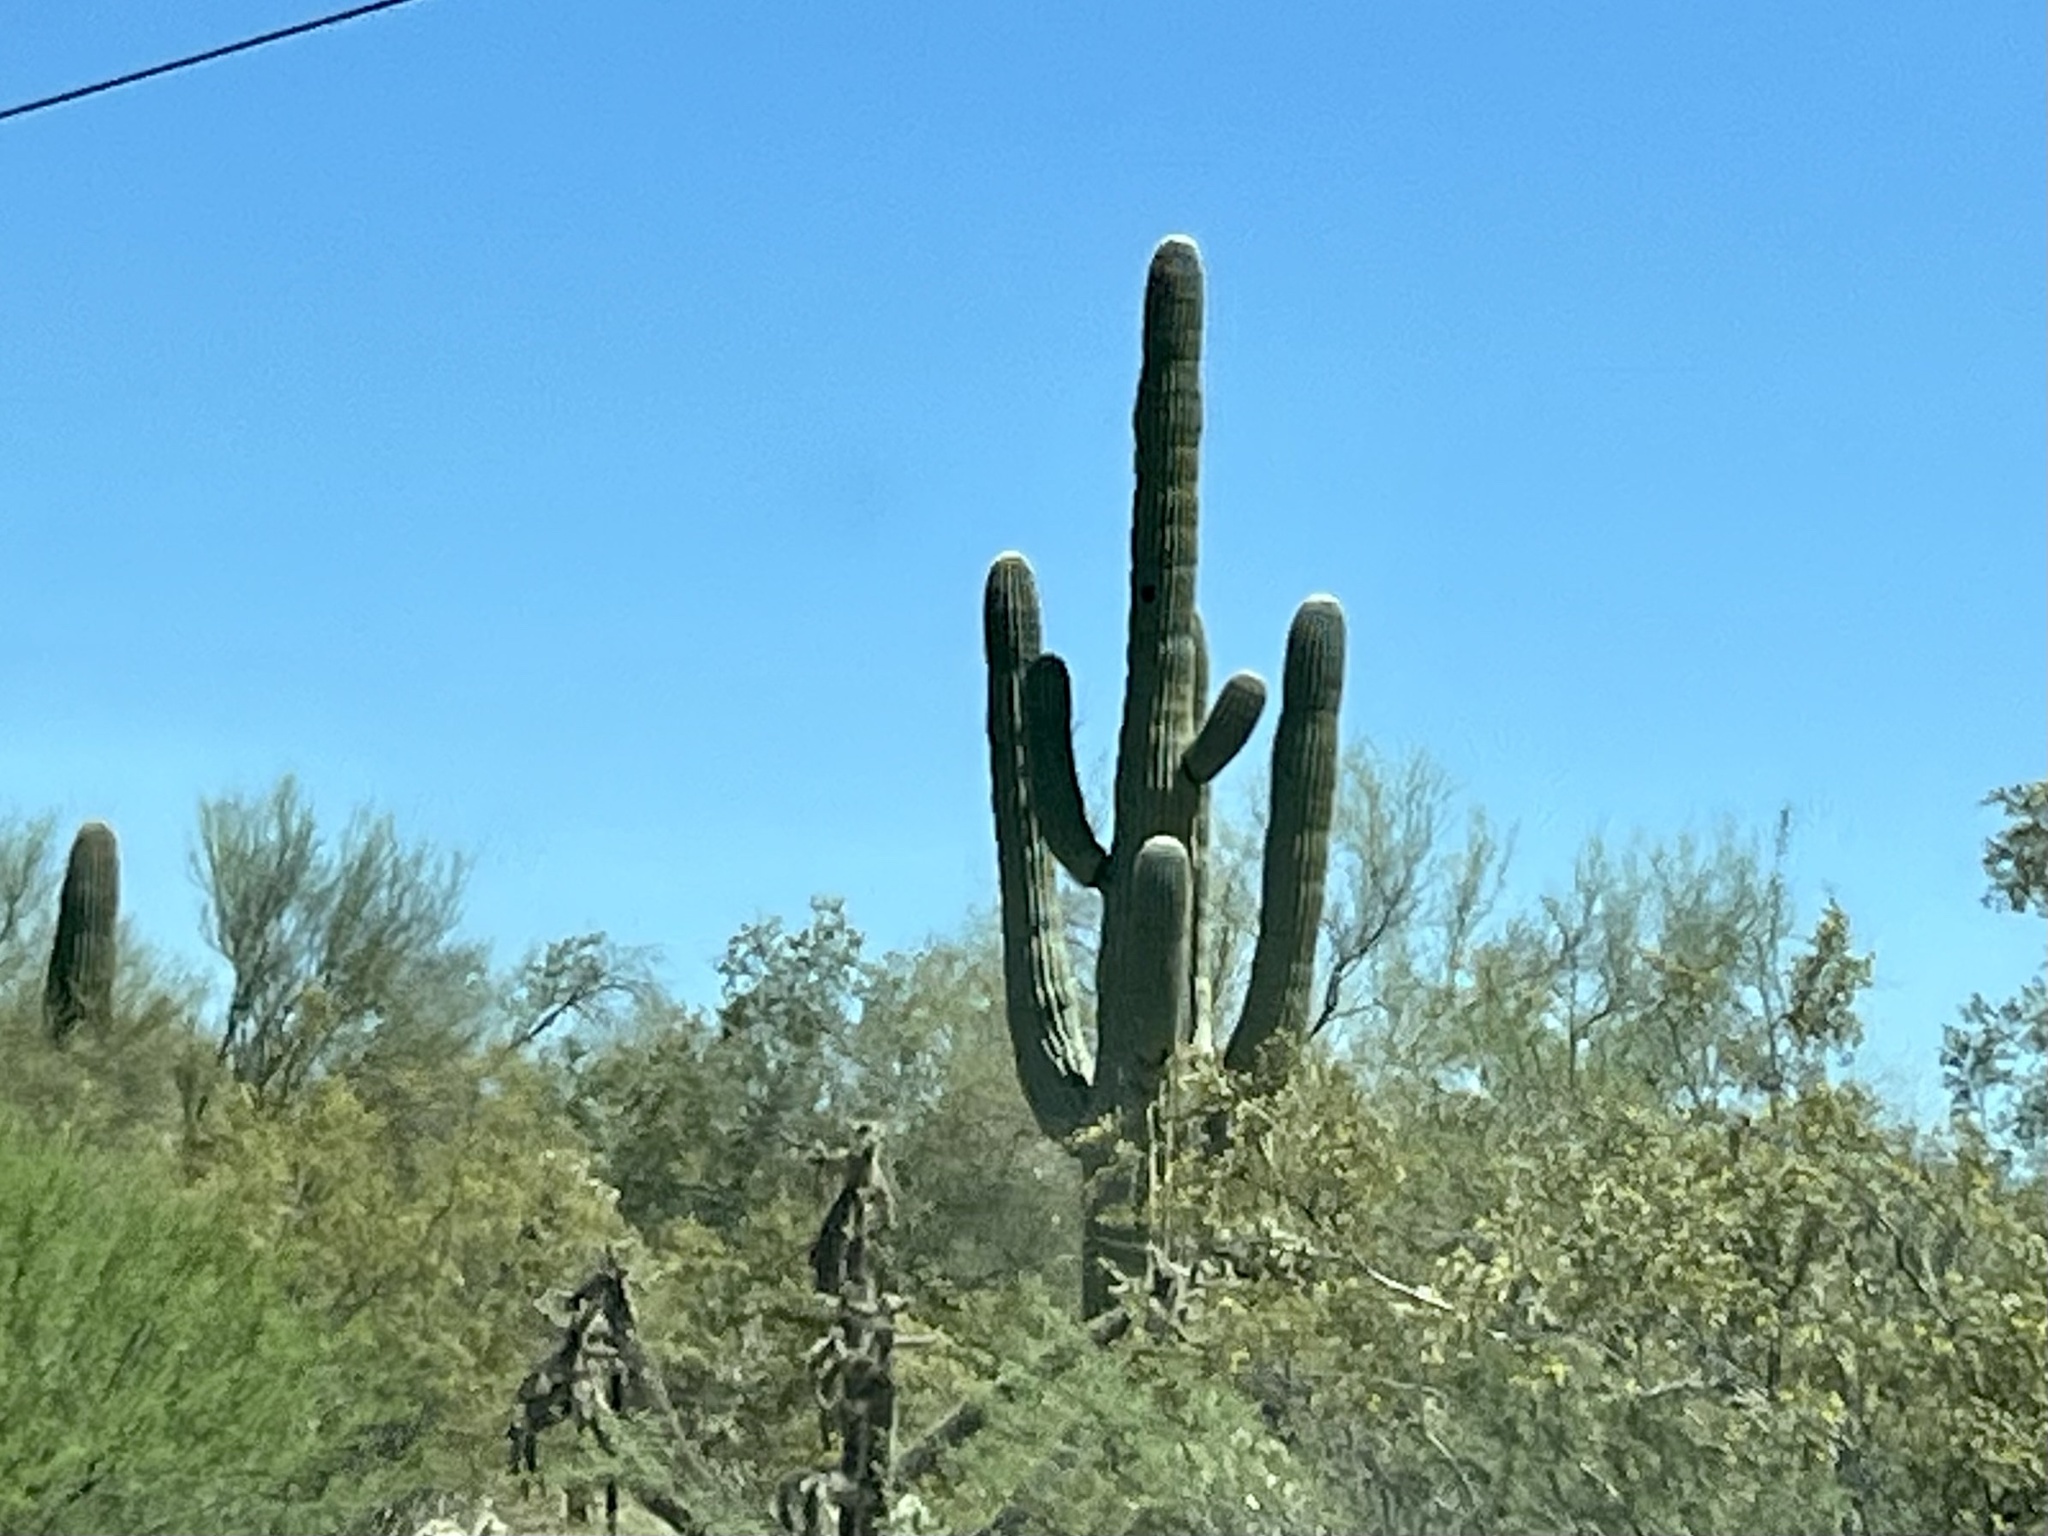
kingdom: Plantae
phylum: Tracheophyta
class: Magnoliopsida
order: Caryophyllales
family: Cactaceae
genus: Carnegiea
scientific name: Carnegiea gigantea
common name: Saguaro
